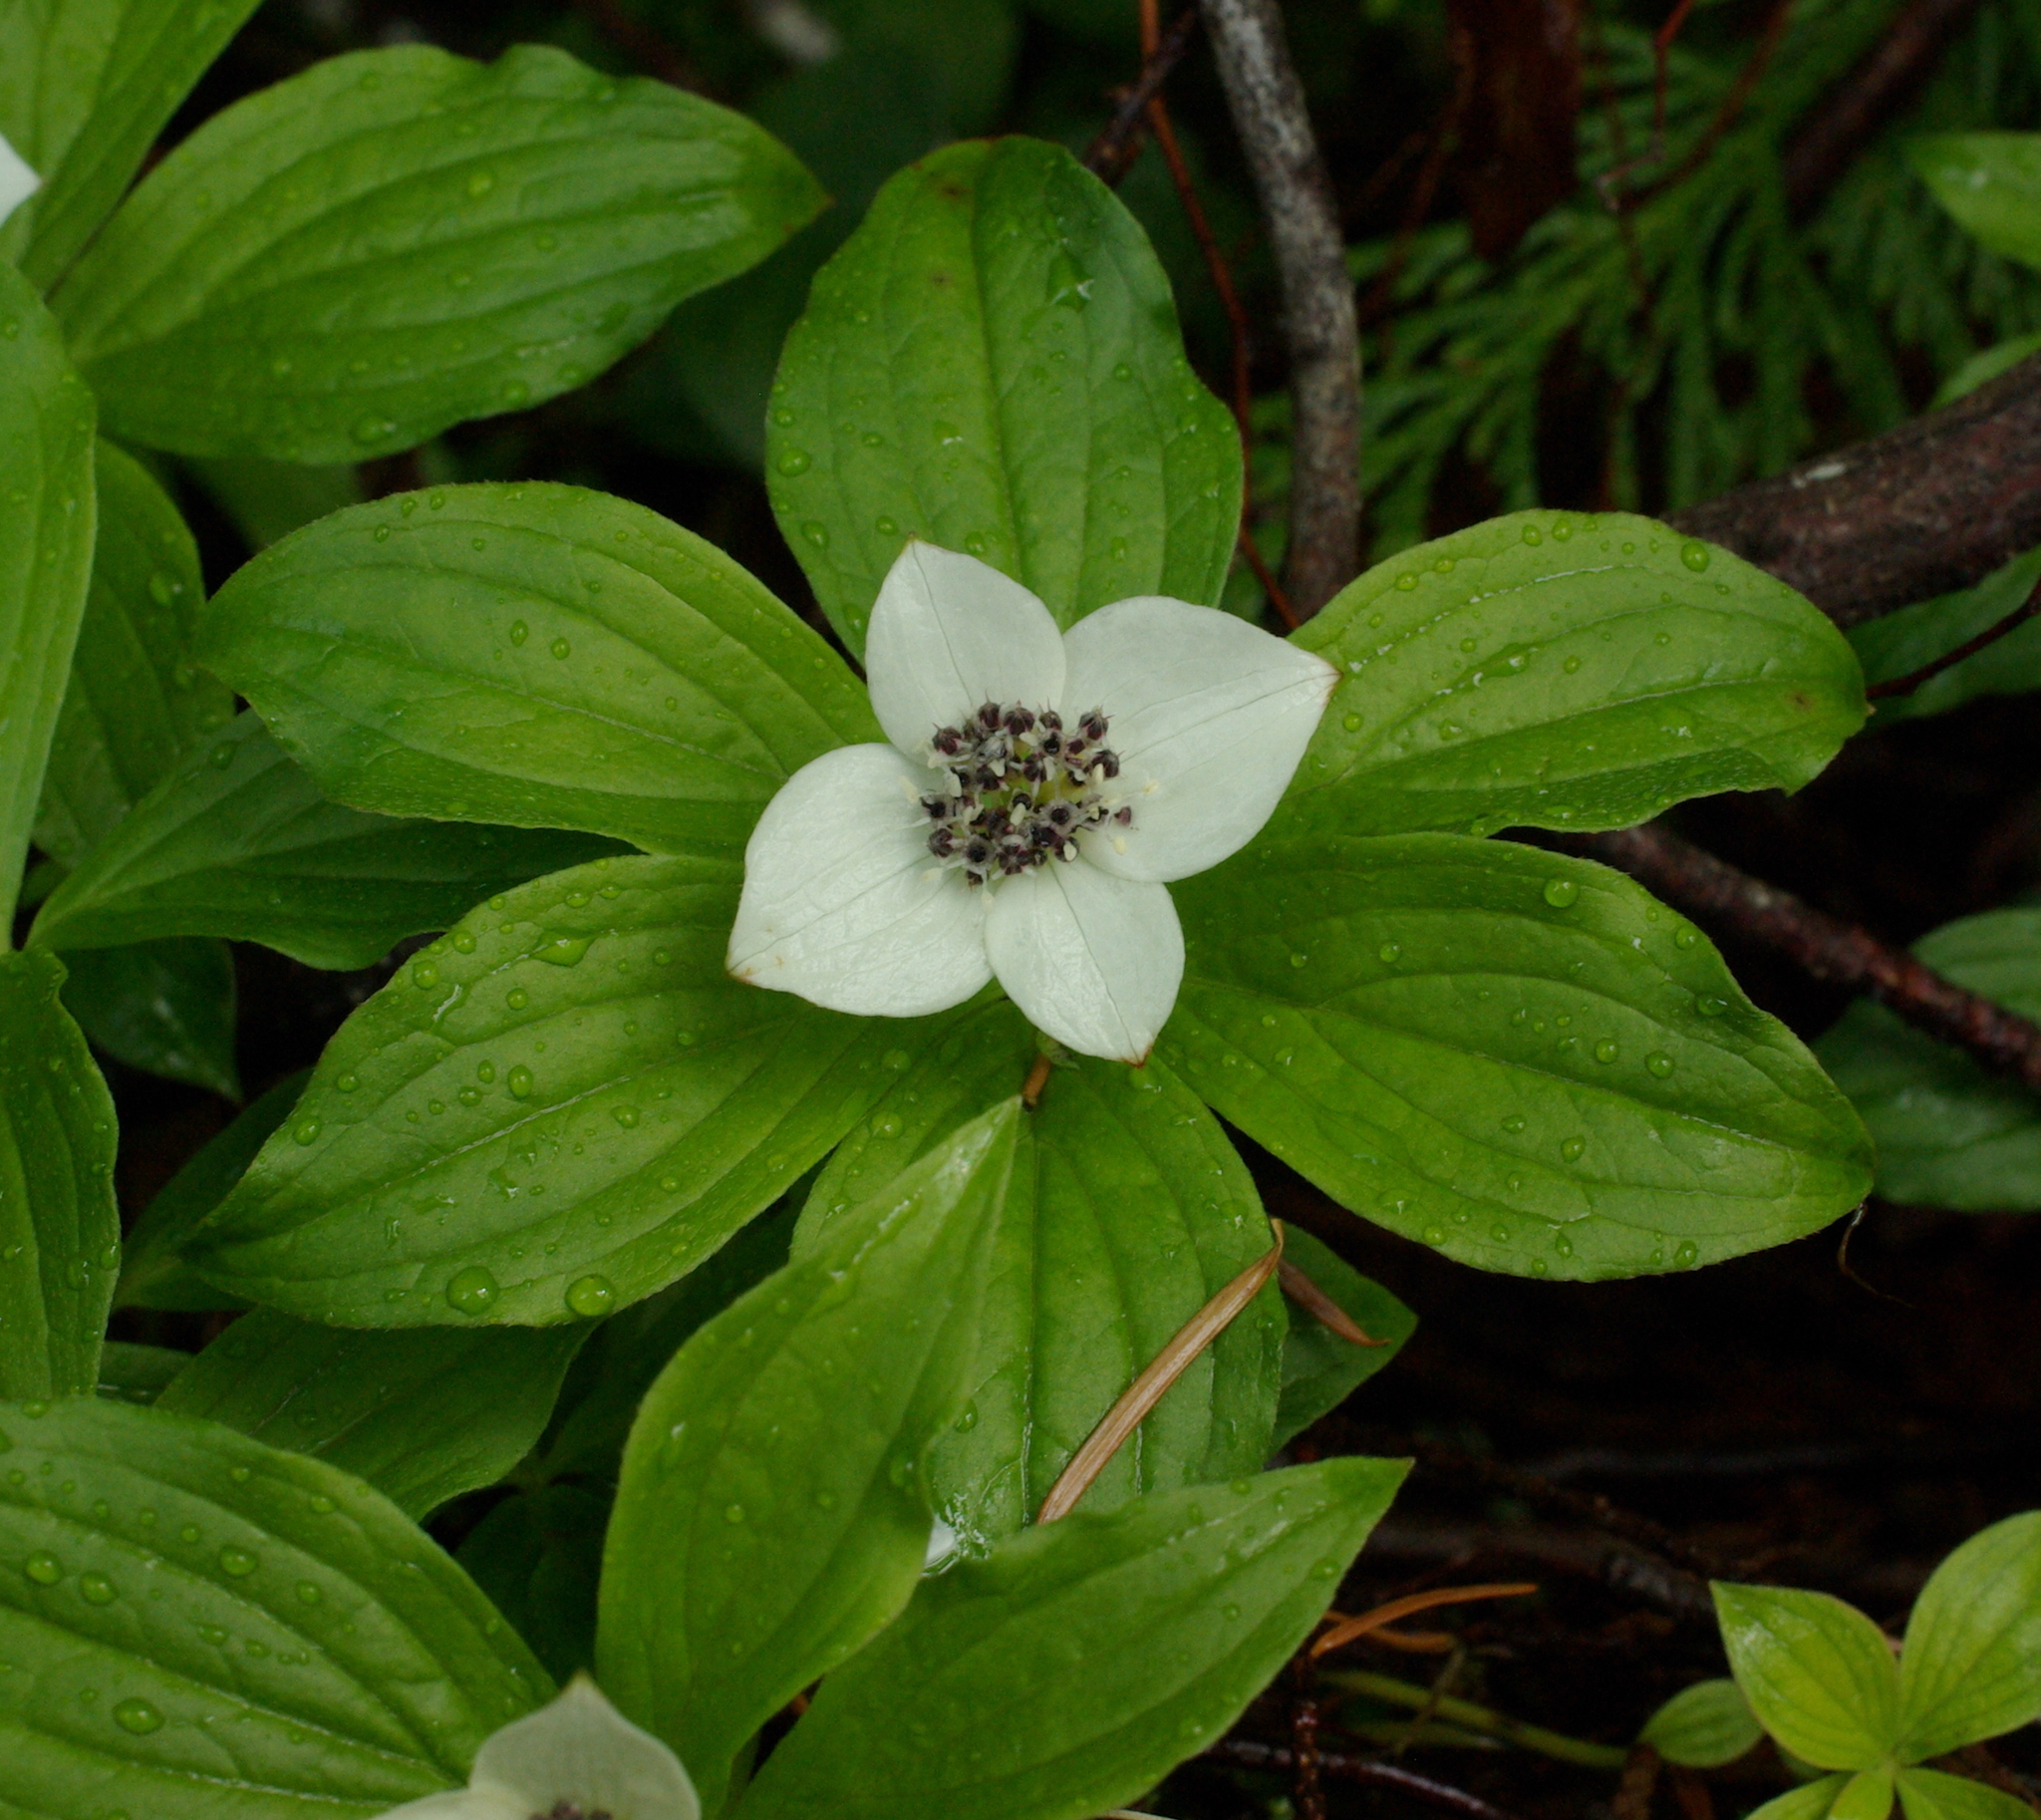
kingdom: Plantae
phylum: Tracheophyta
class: Magnoliopsida
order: Cornales
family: Cornaceae
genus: Cornus
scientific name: Cornus unalaschkensis
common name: Alaska bunchberry
